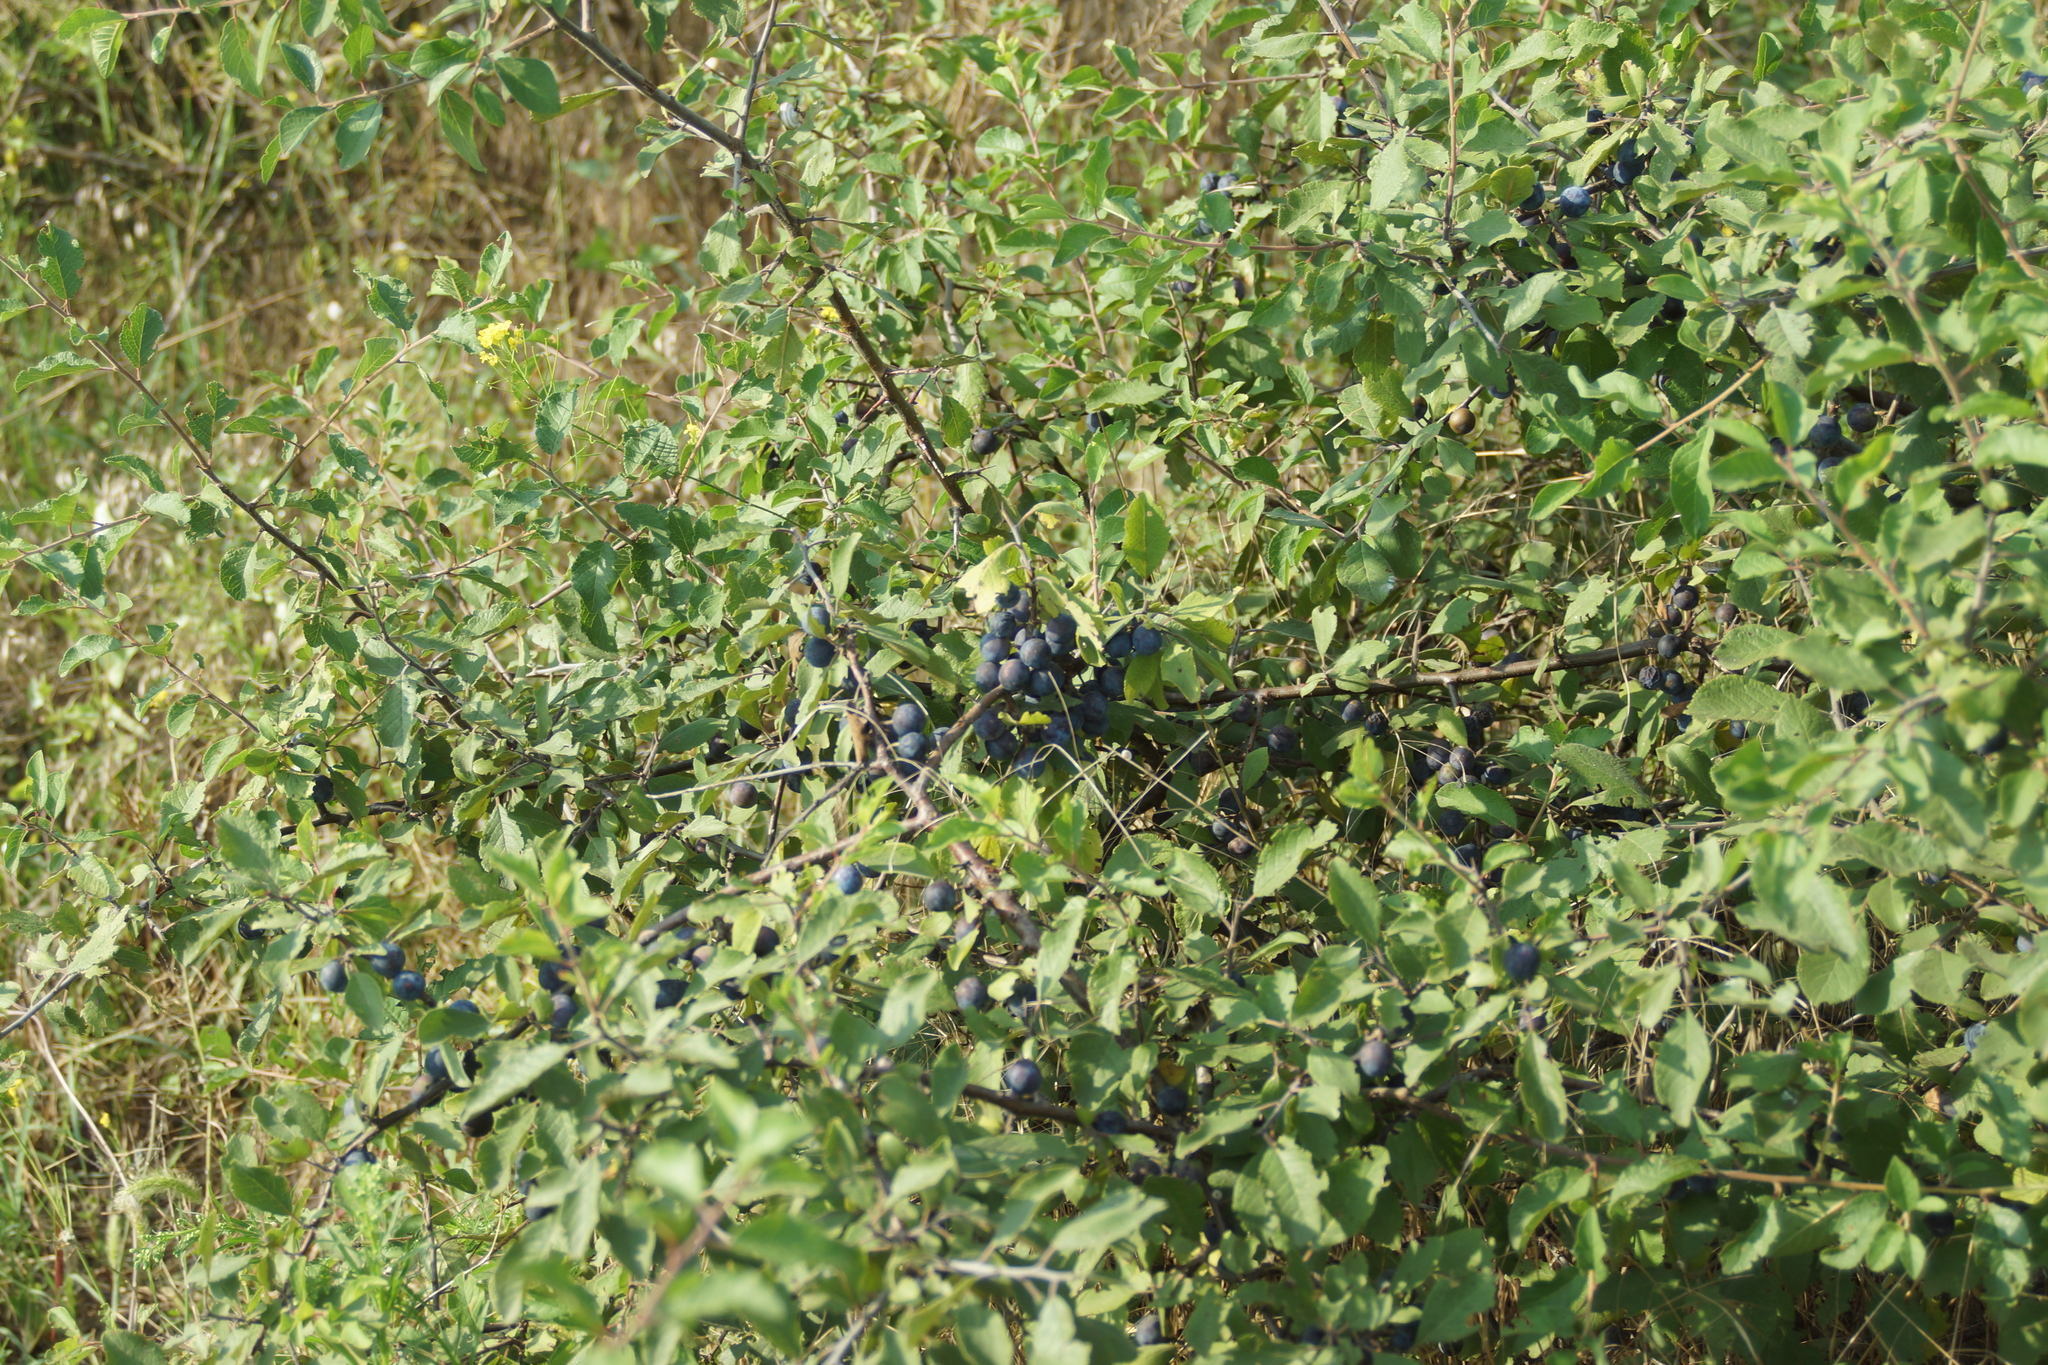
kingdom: Plantae
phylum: Tracheophyta
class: Magnoliopsida
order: Rosales
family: Rosaceae
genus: Prunus
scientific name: Prunus spinosa
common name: Blackthorn
